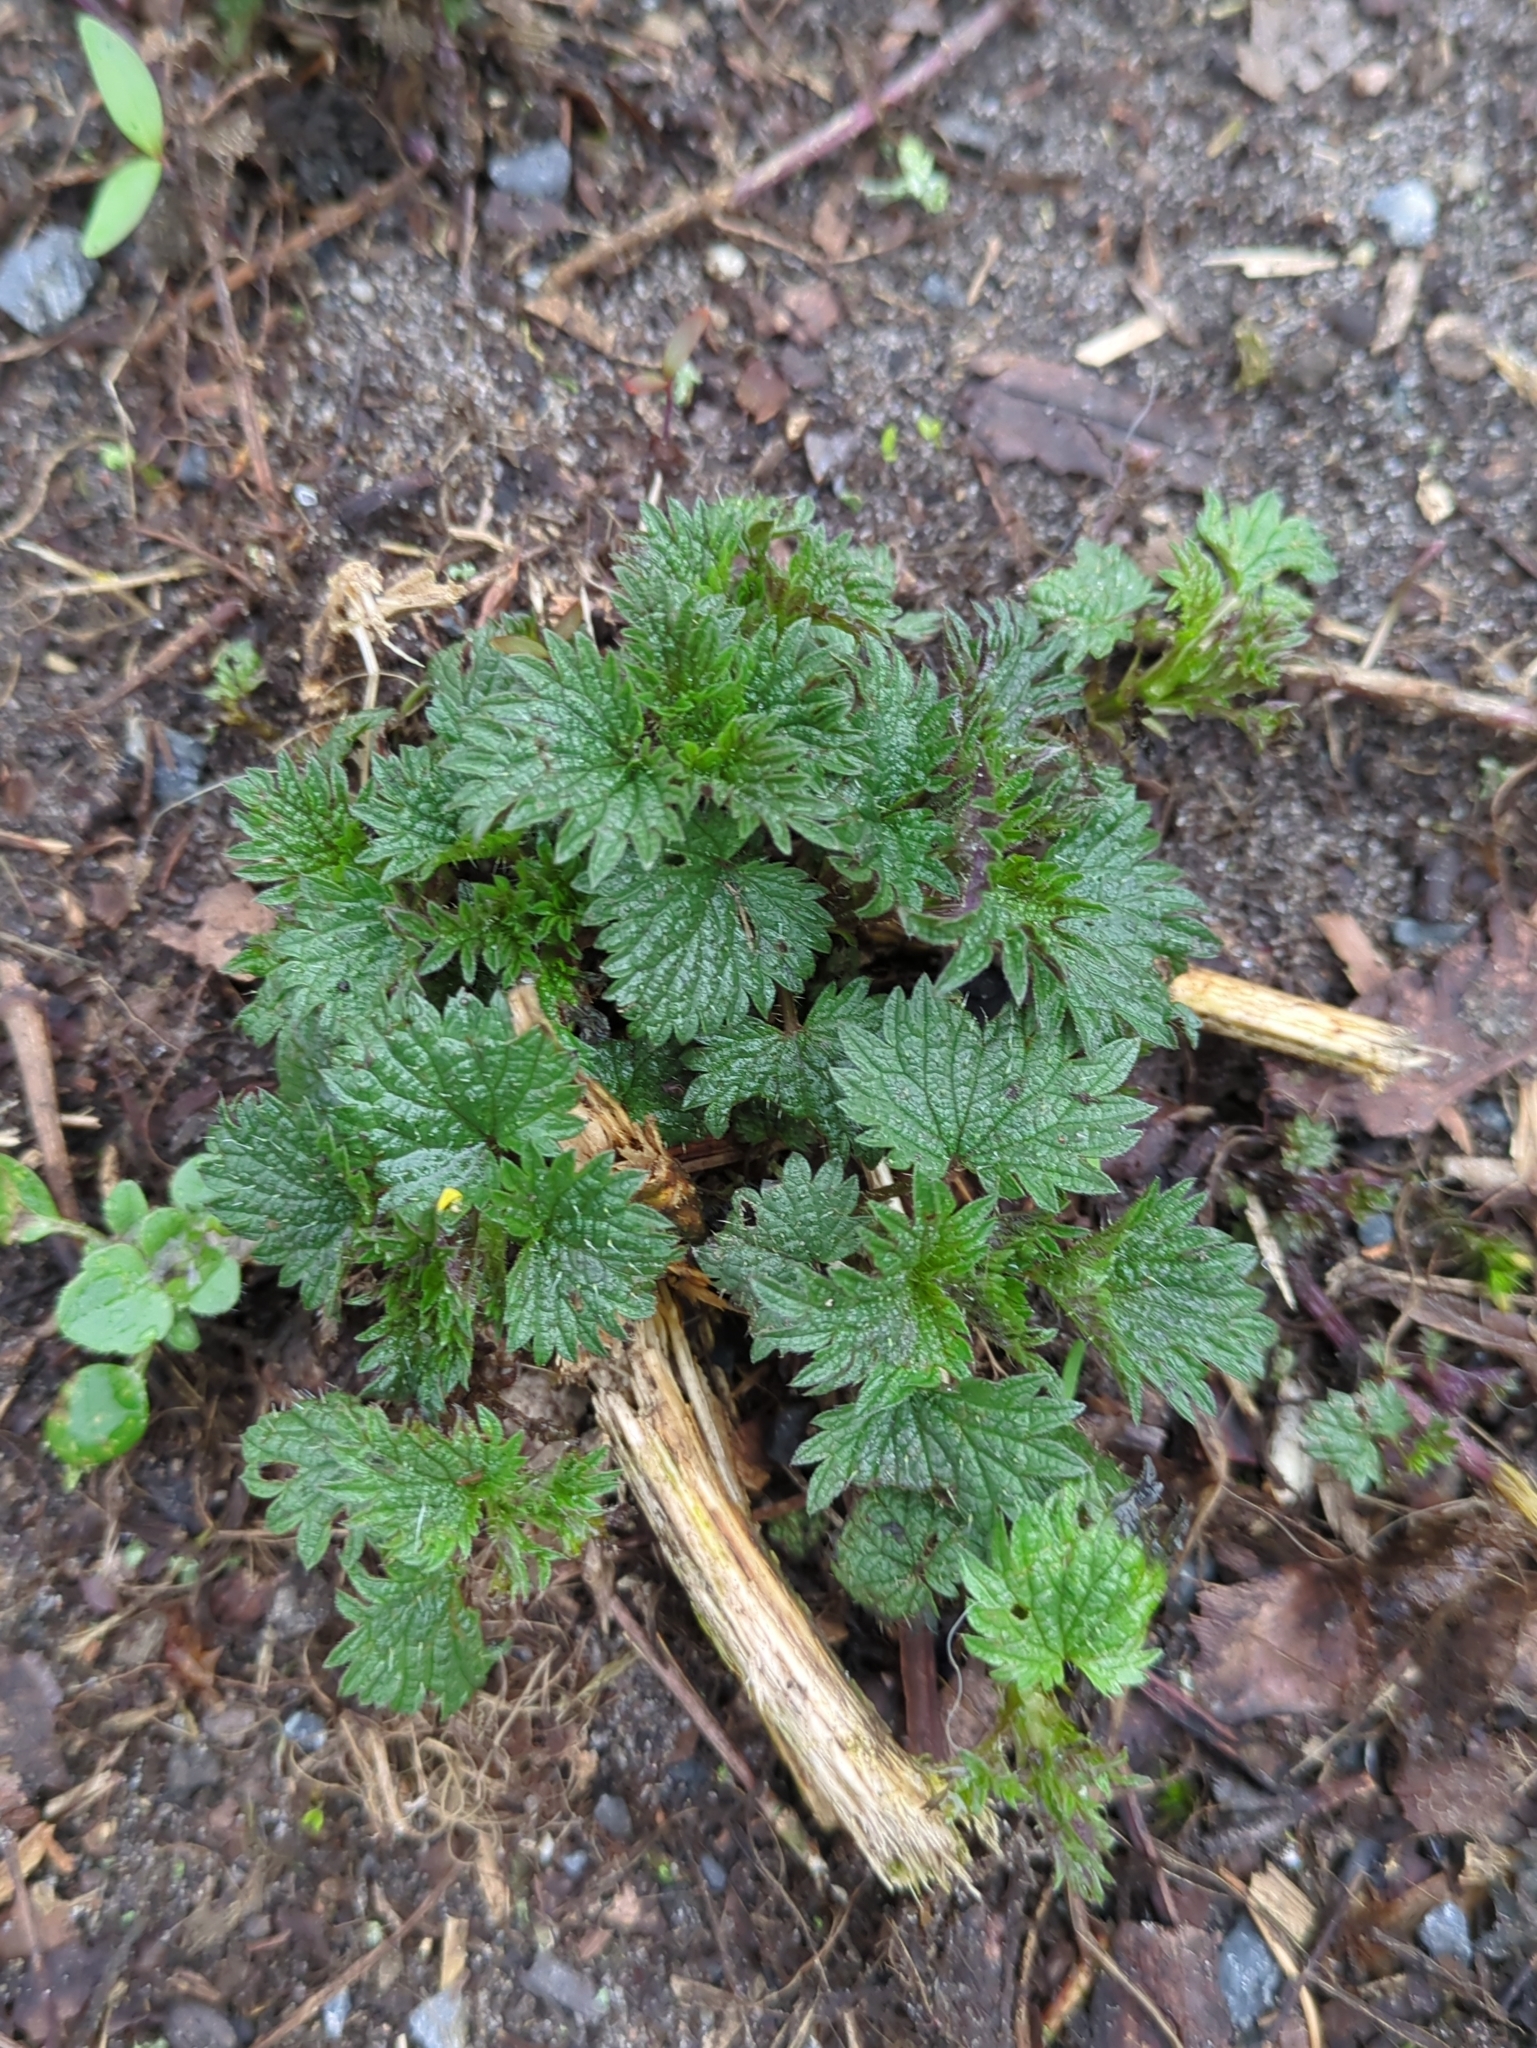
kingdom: Plantae
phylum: Tracheophyta
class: Magnoliopsida
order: Rosales
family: Urticaceae
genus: Urtica
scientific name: Urtica dioica
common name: Common nettle
